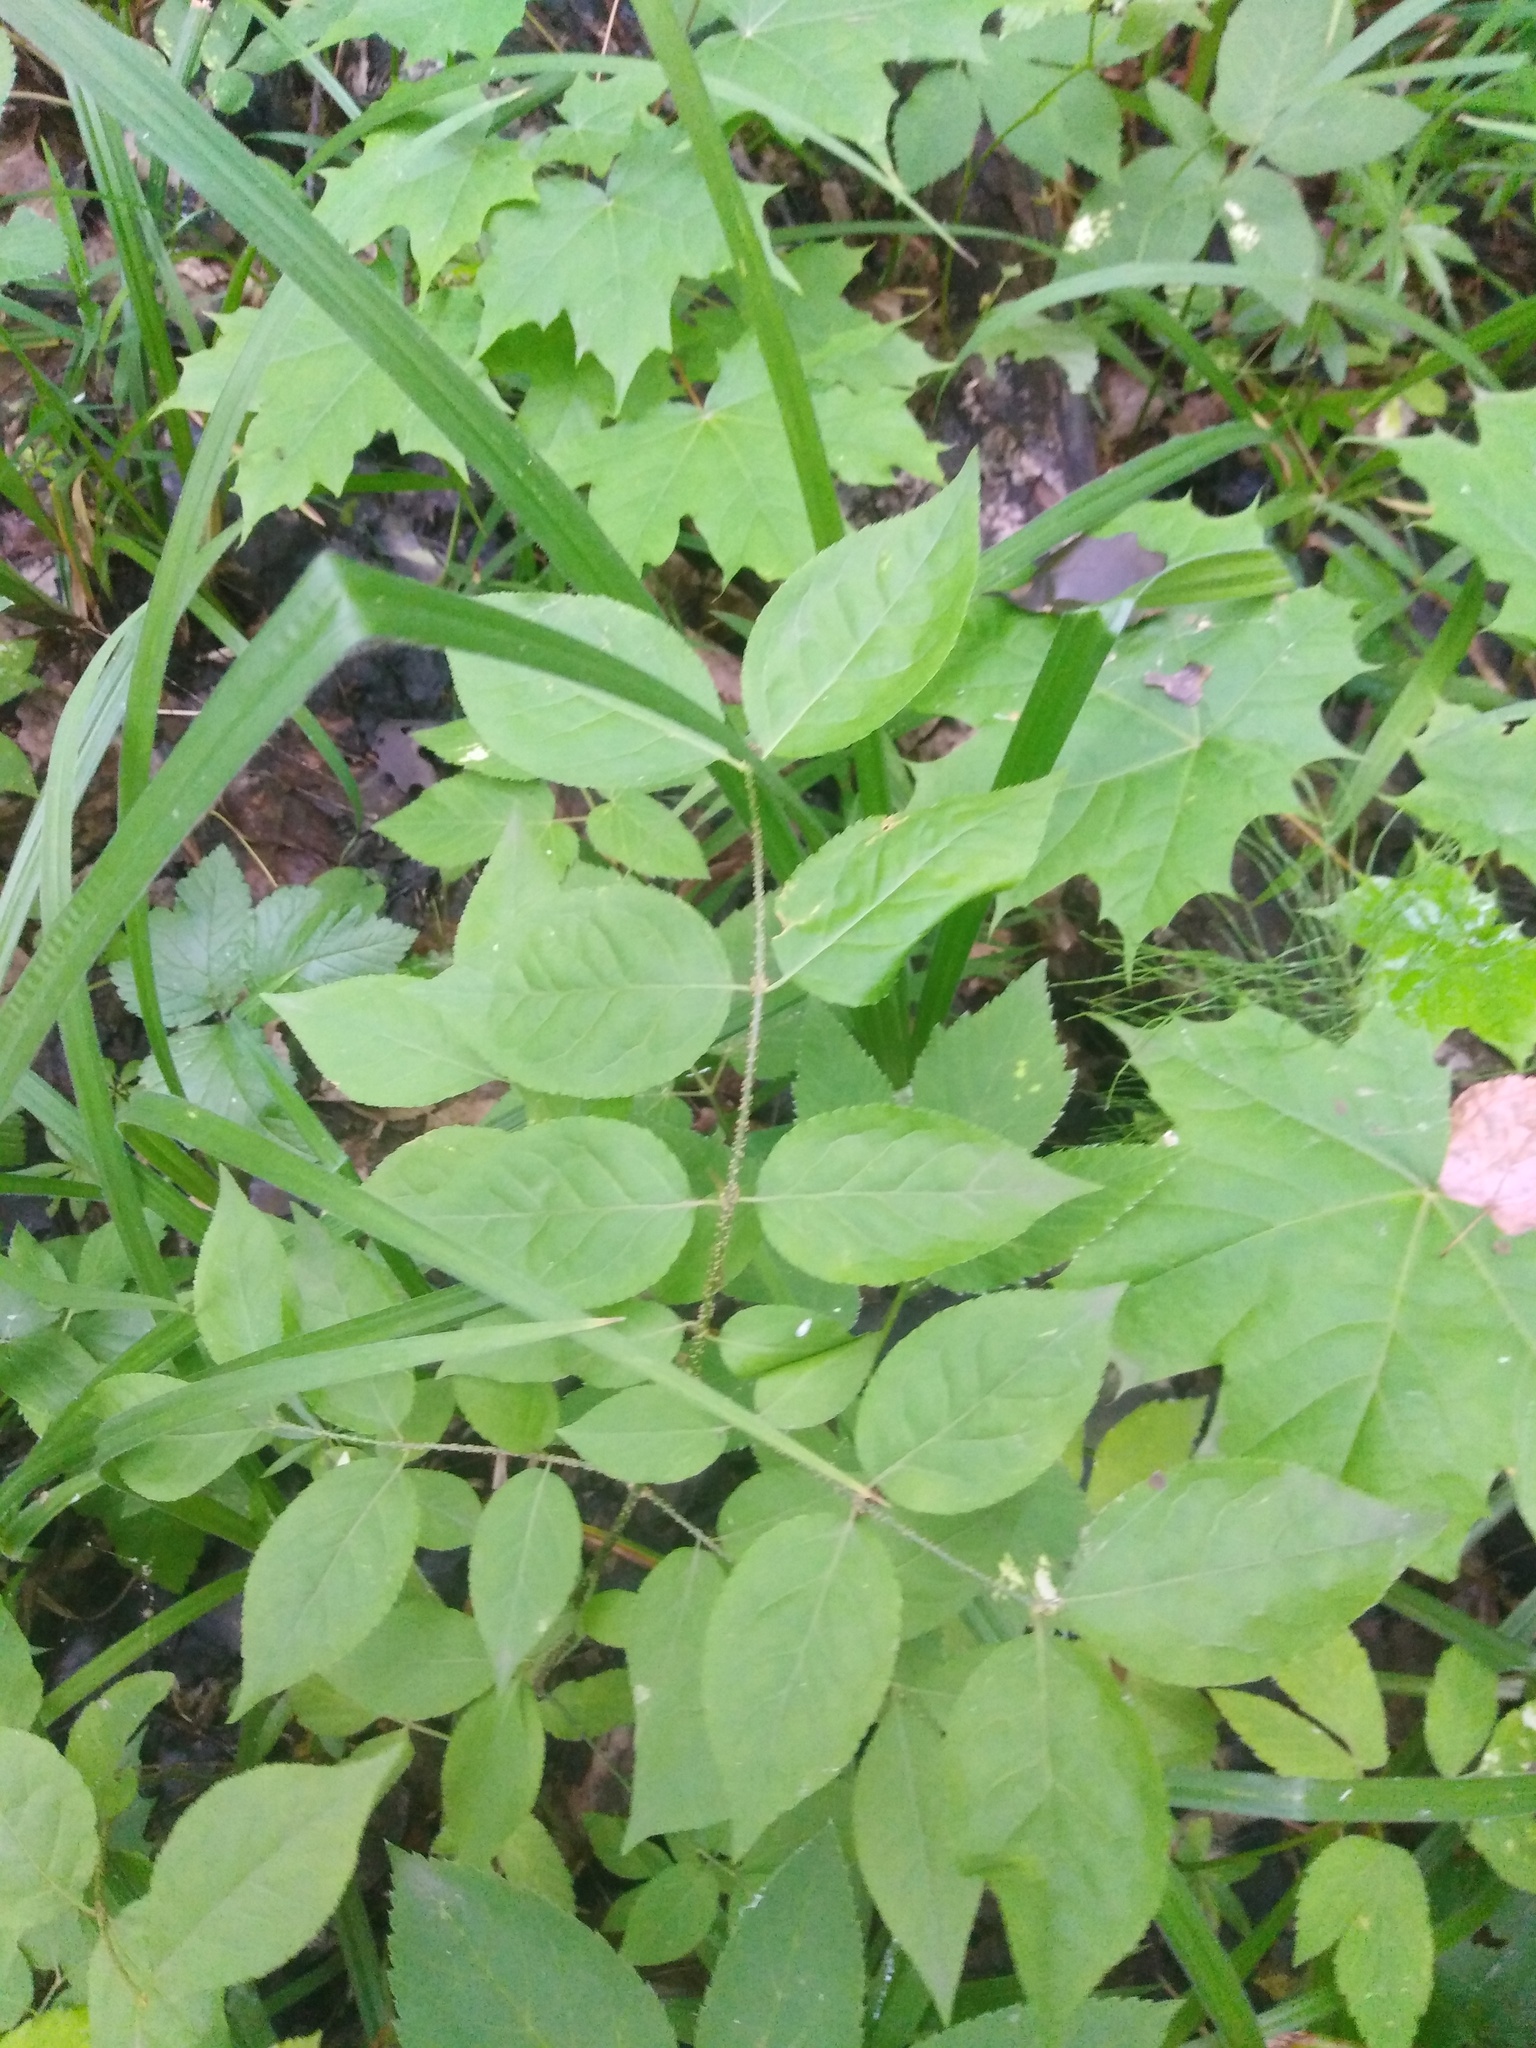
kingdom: Plantae
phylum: Tracheophyta
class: Magnoliopsida
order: Celastrales
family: Celastraceae
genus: Euonymus
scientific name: Euonymus verrucosus
